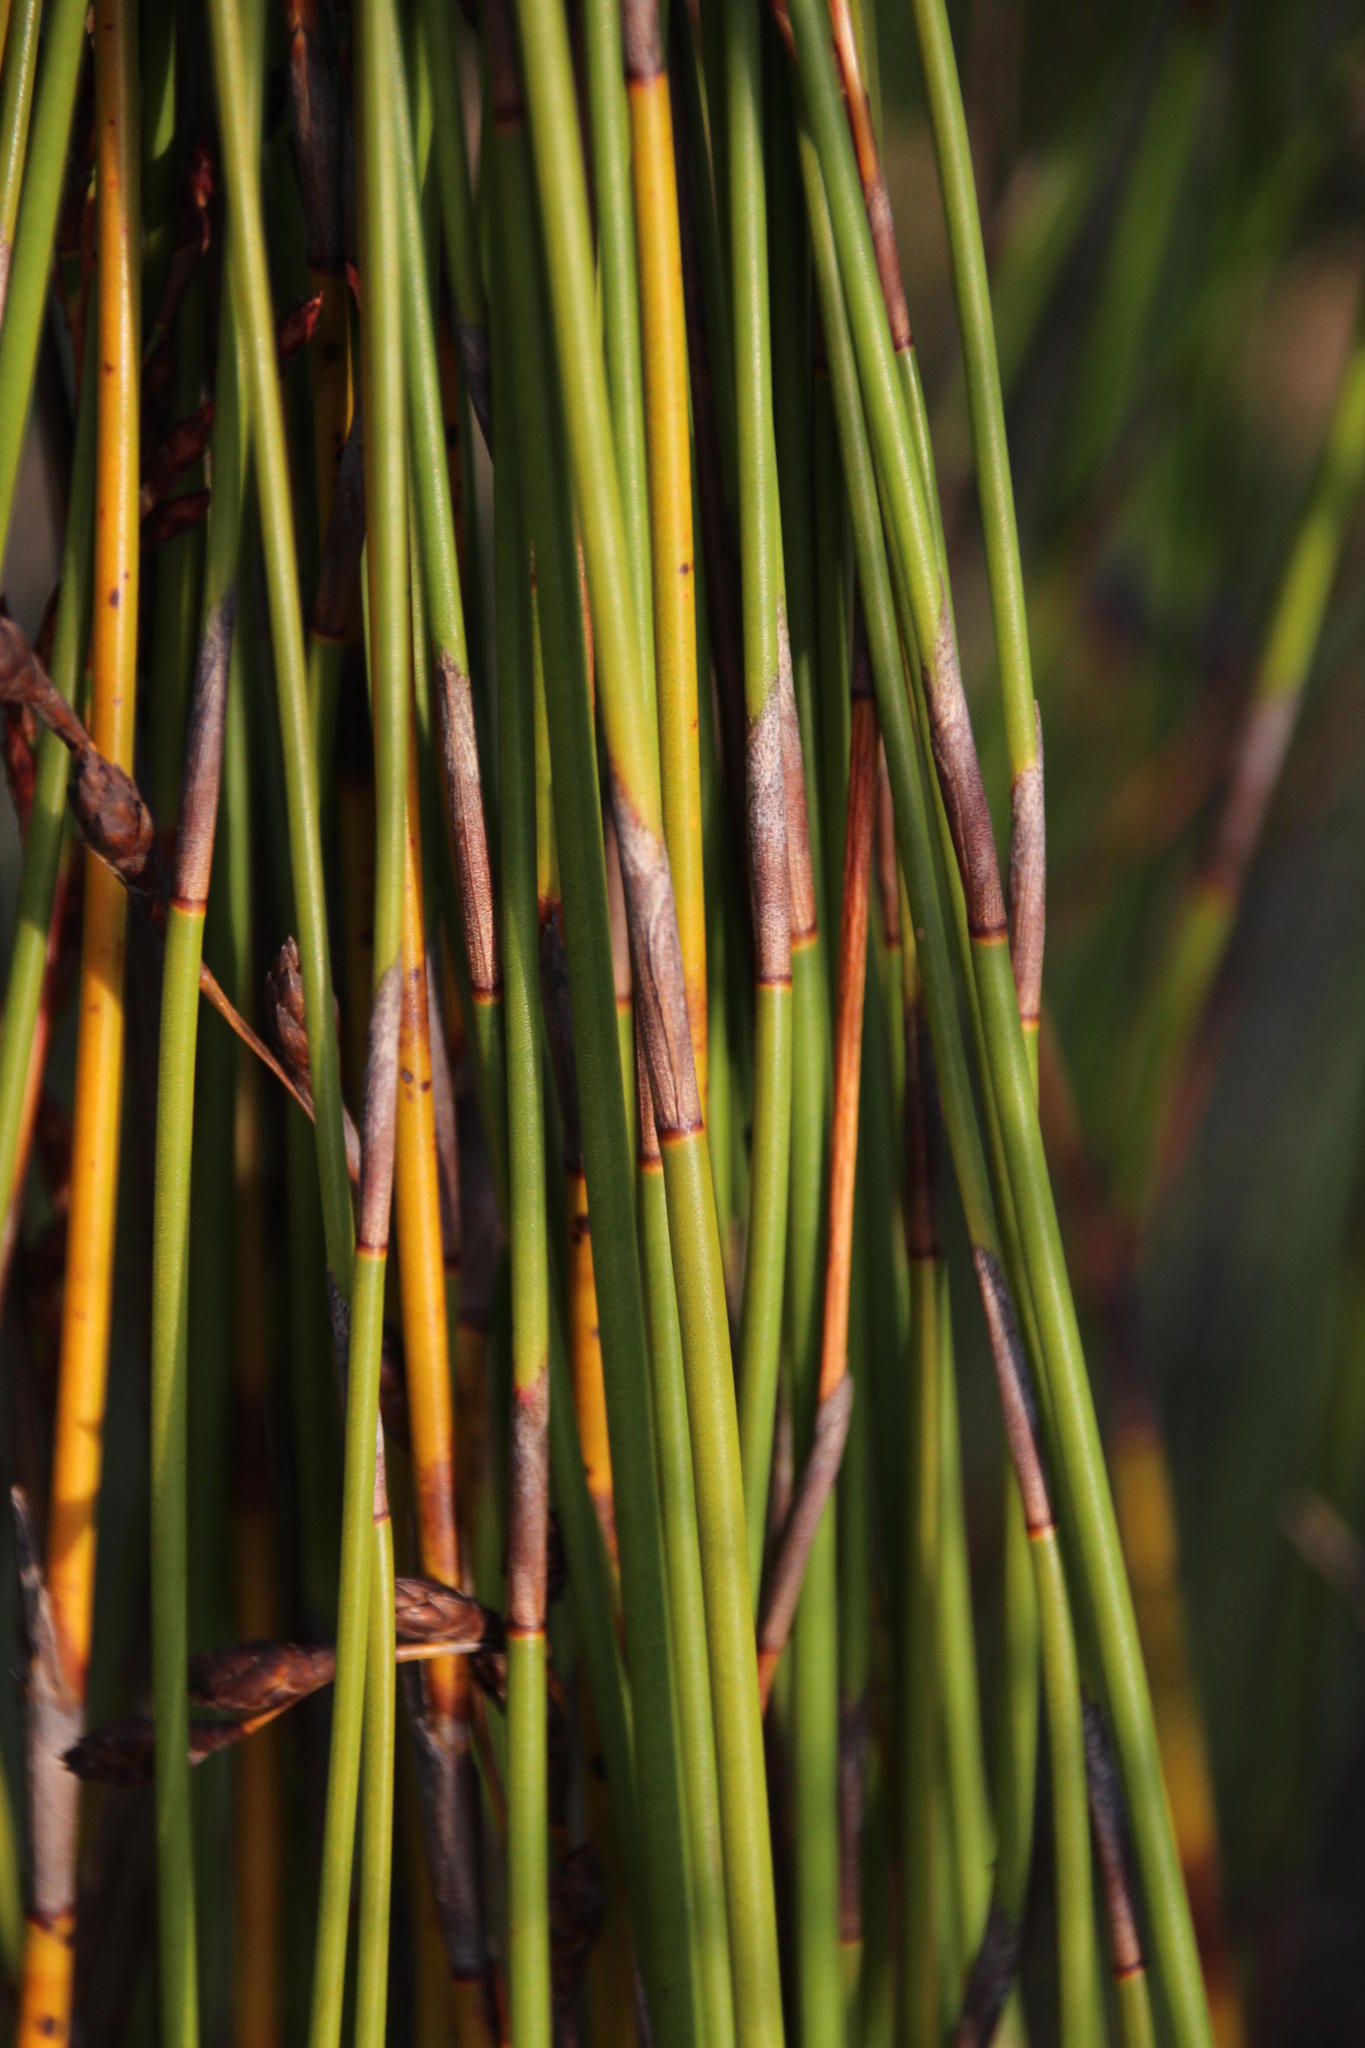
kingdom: Plantae
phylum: Tracheophyta
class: Liliopsida
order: Poales
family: Restionaceae
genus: Restio
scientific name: Restio bifurcus
